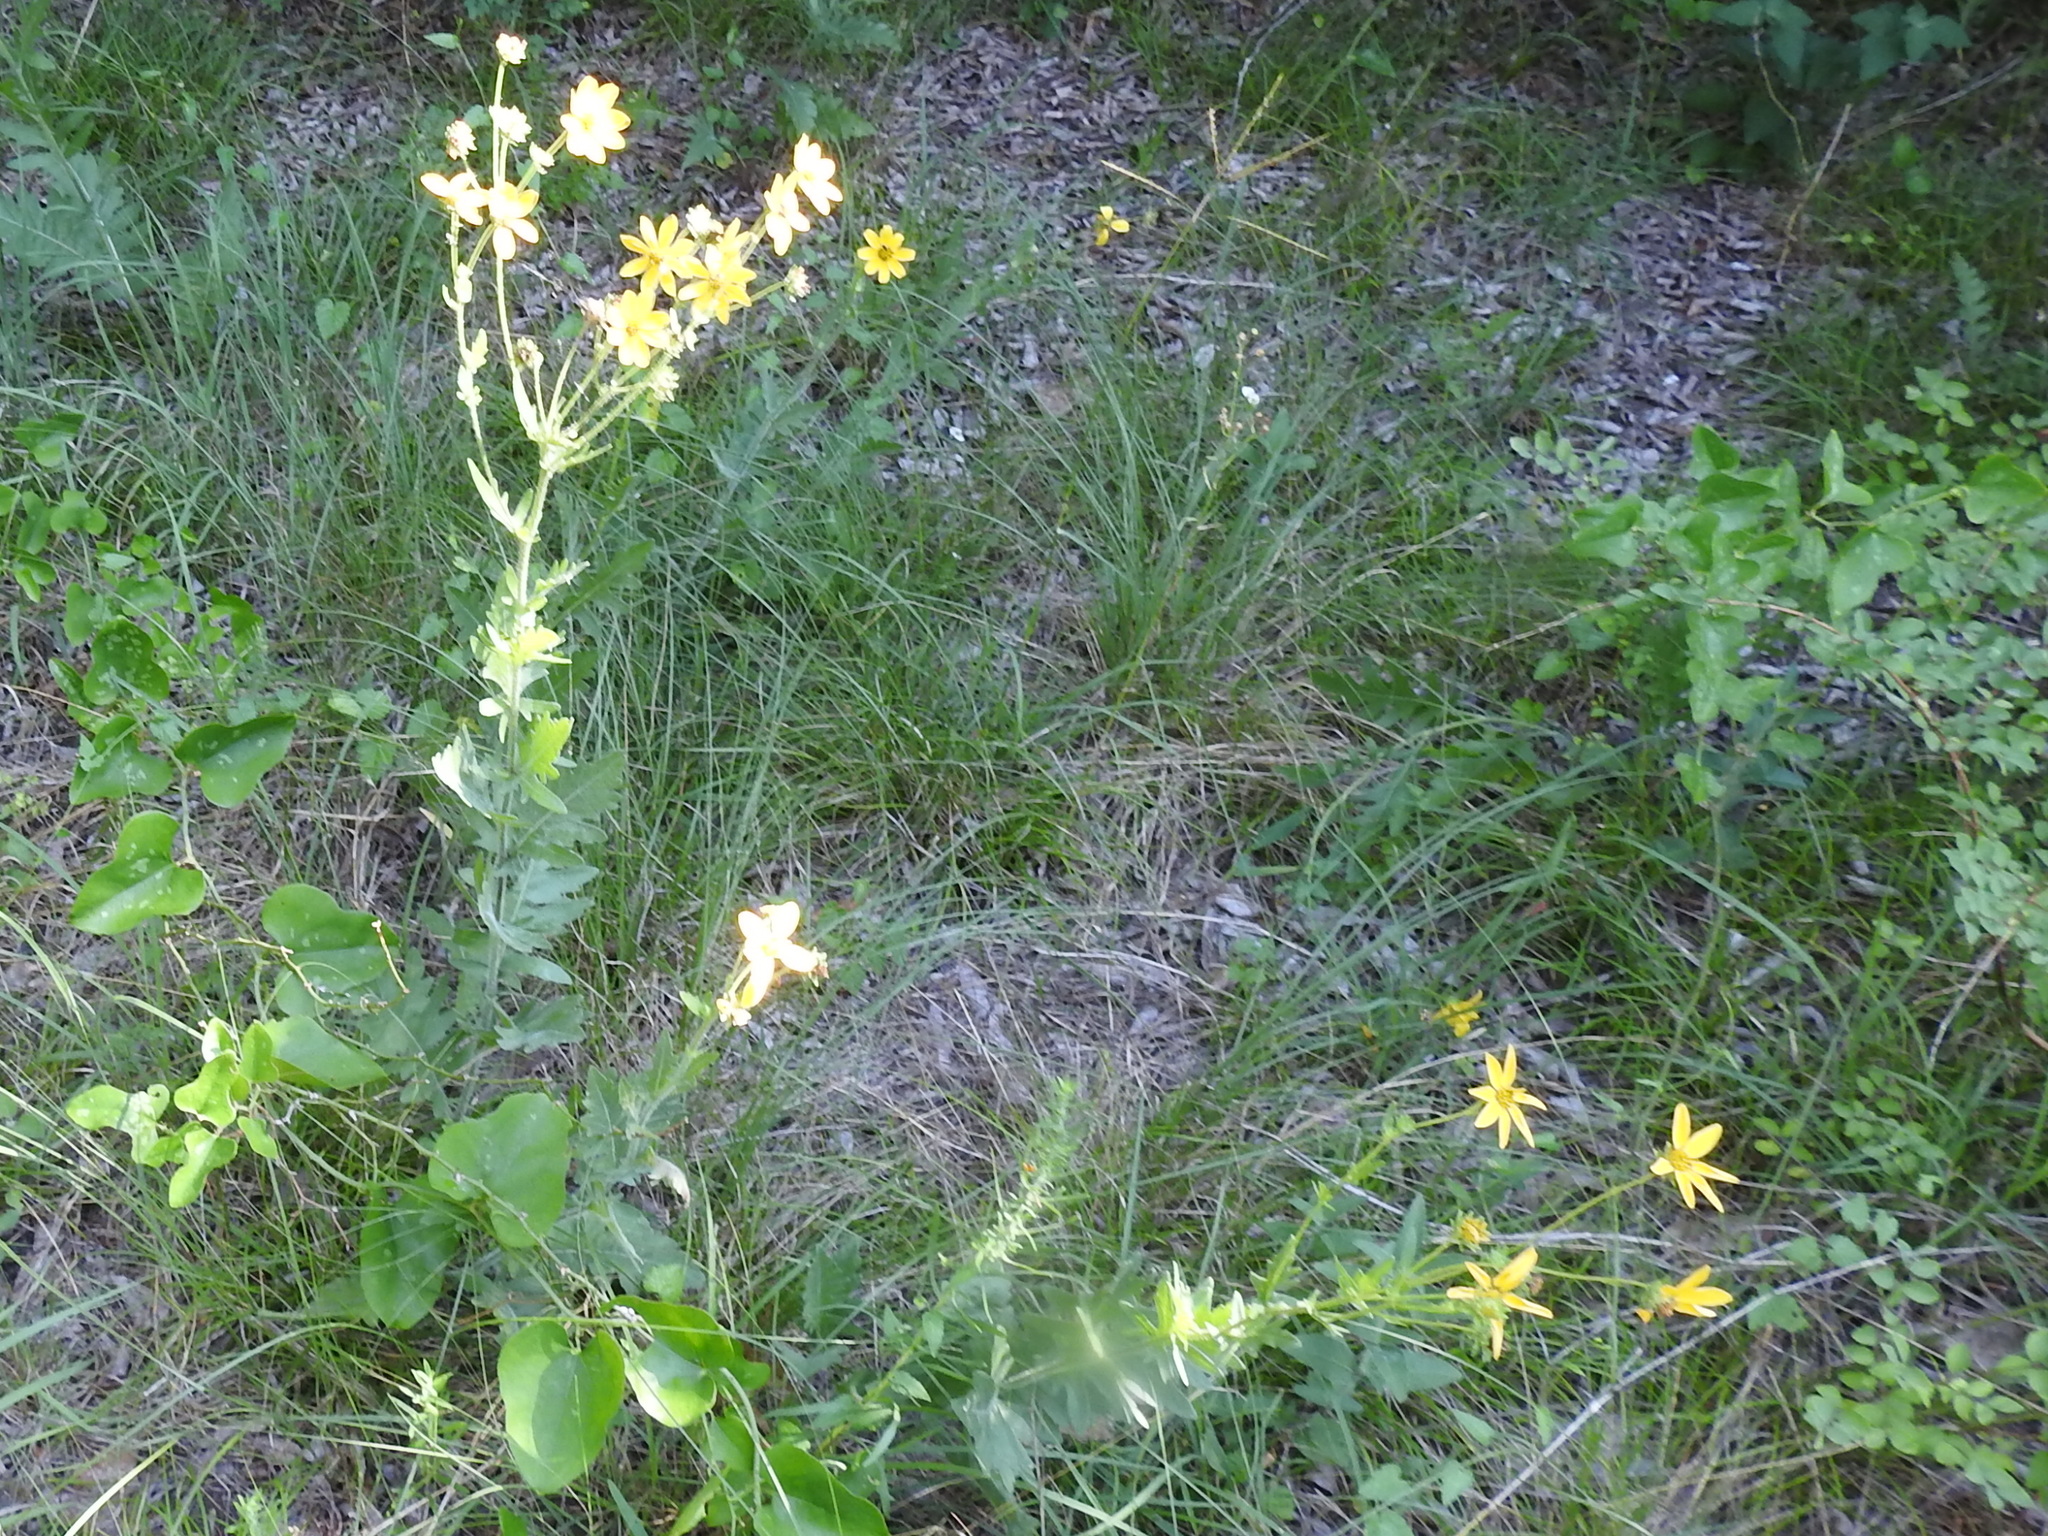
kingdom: Plantae
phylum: Tracheophyta
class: Magnoliopsida
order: Asterales
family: Asteraceae
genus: Engelmannia
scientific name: Engelmannia peristenia
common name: Engelmann's daisy
